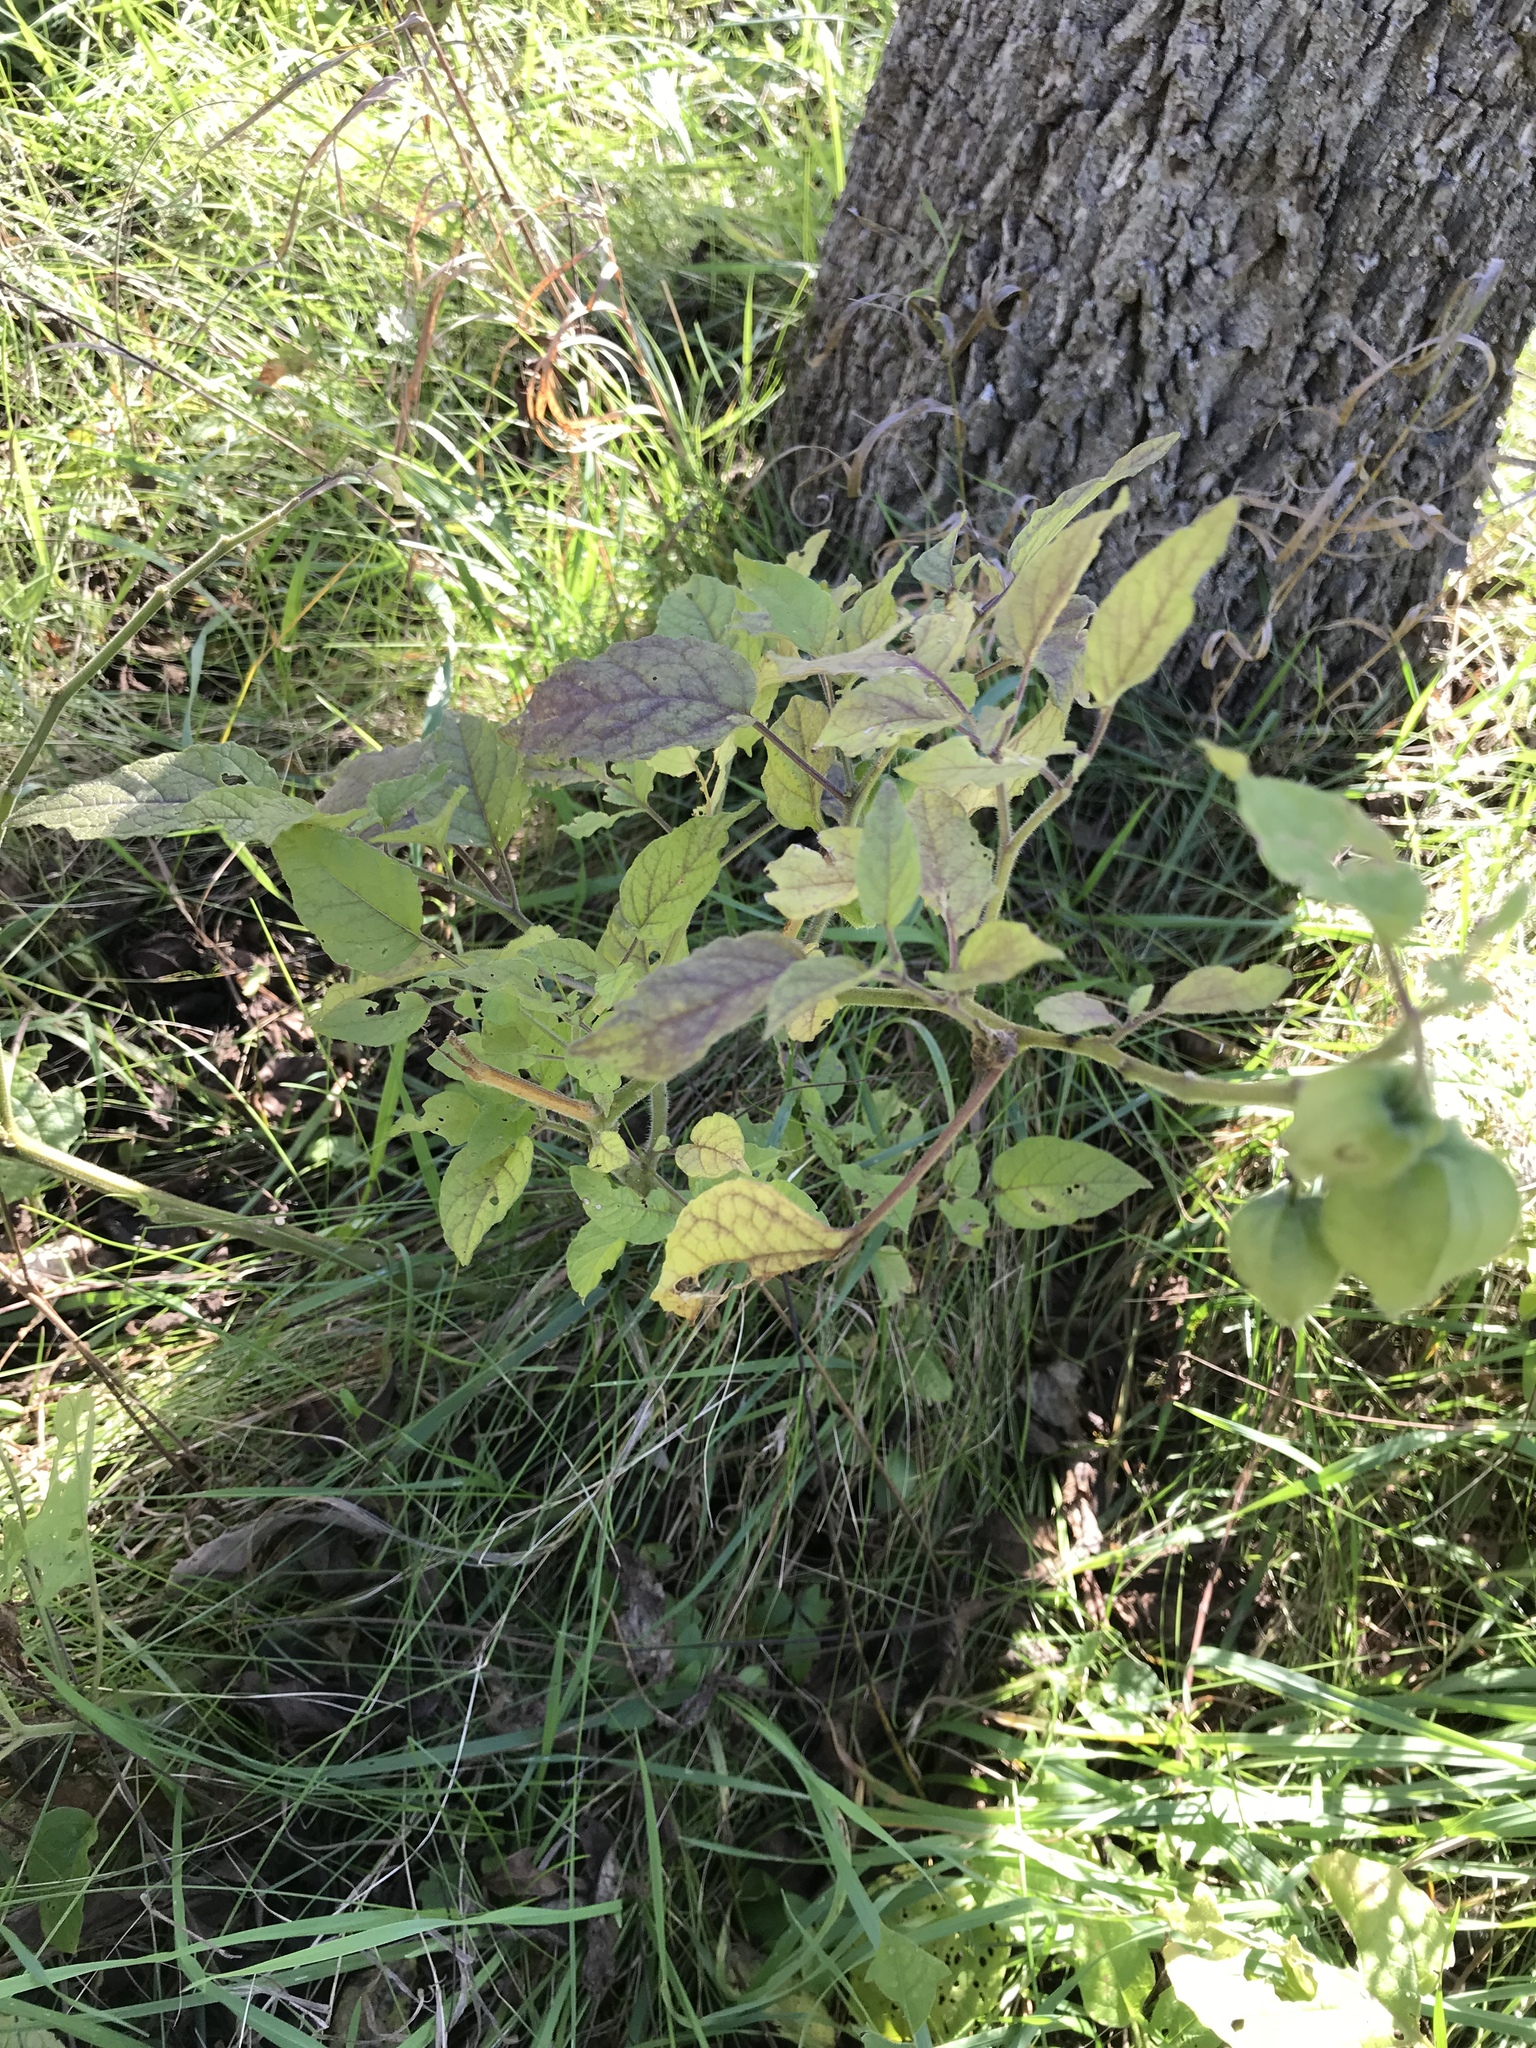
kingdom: Plantae
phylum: Tracheophyta
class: Magnoliopsida
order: Solanales
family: Solanaceae
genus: Physalis
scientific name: Physalis heterophylla
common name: Clammy ground-cherry
